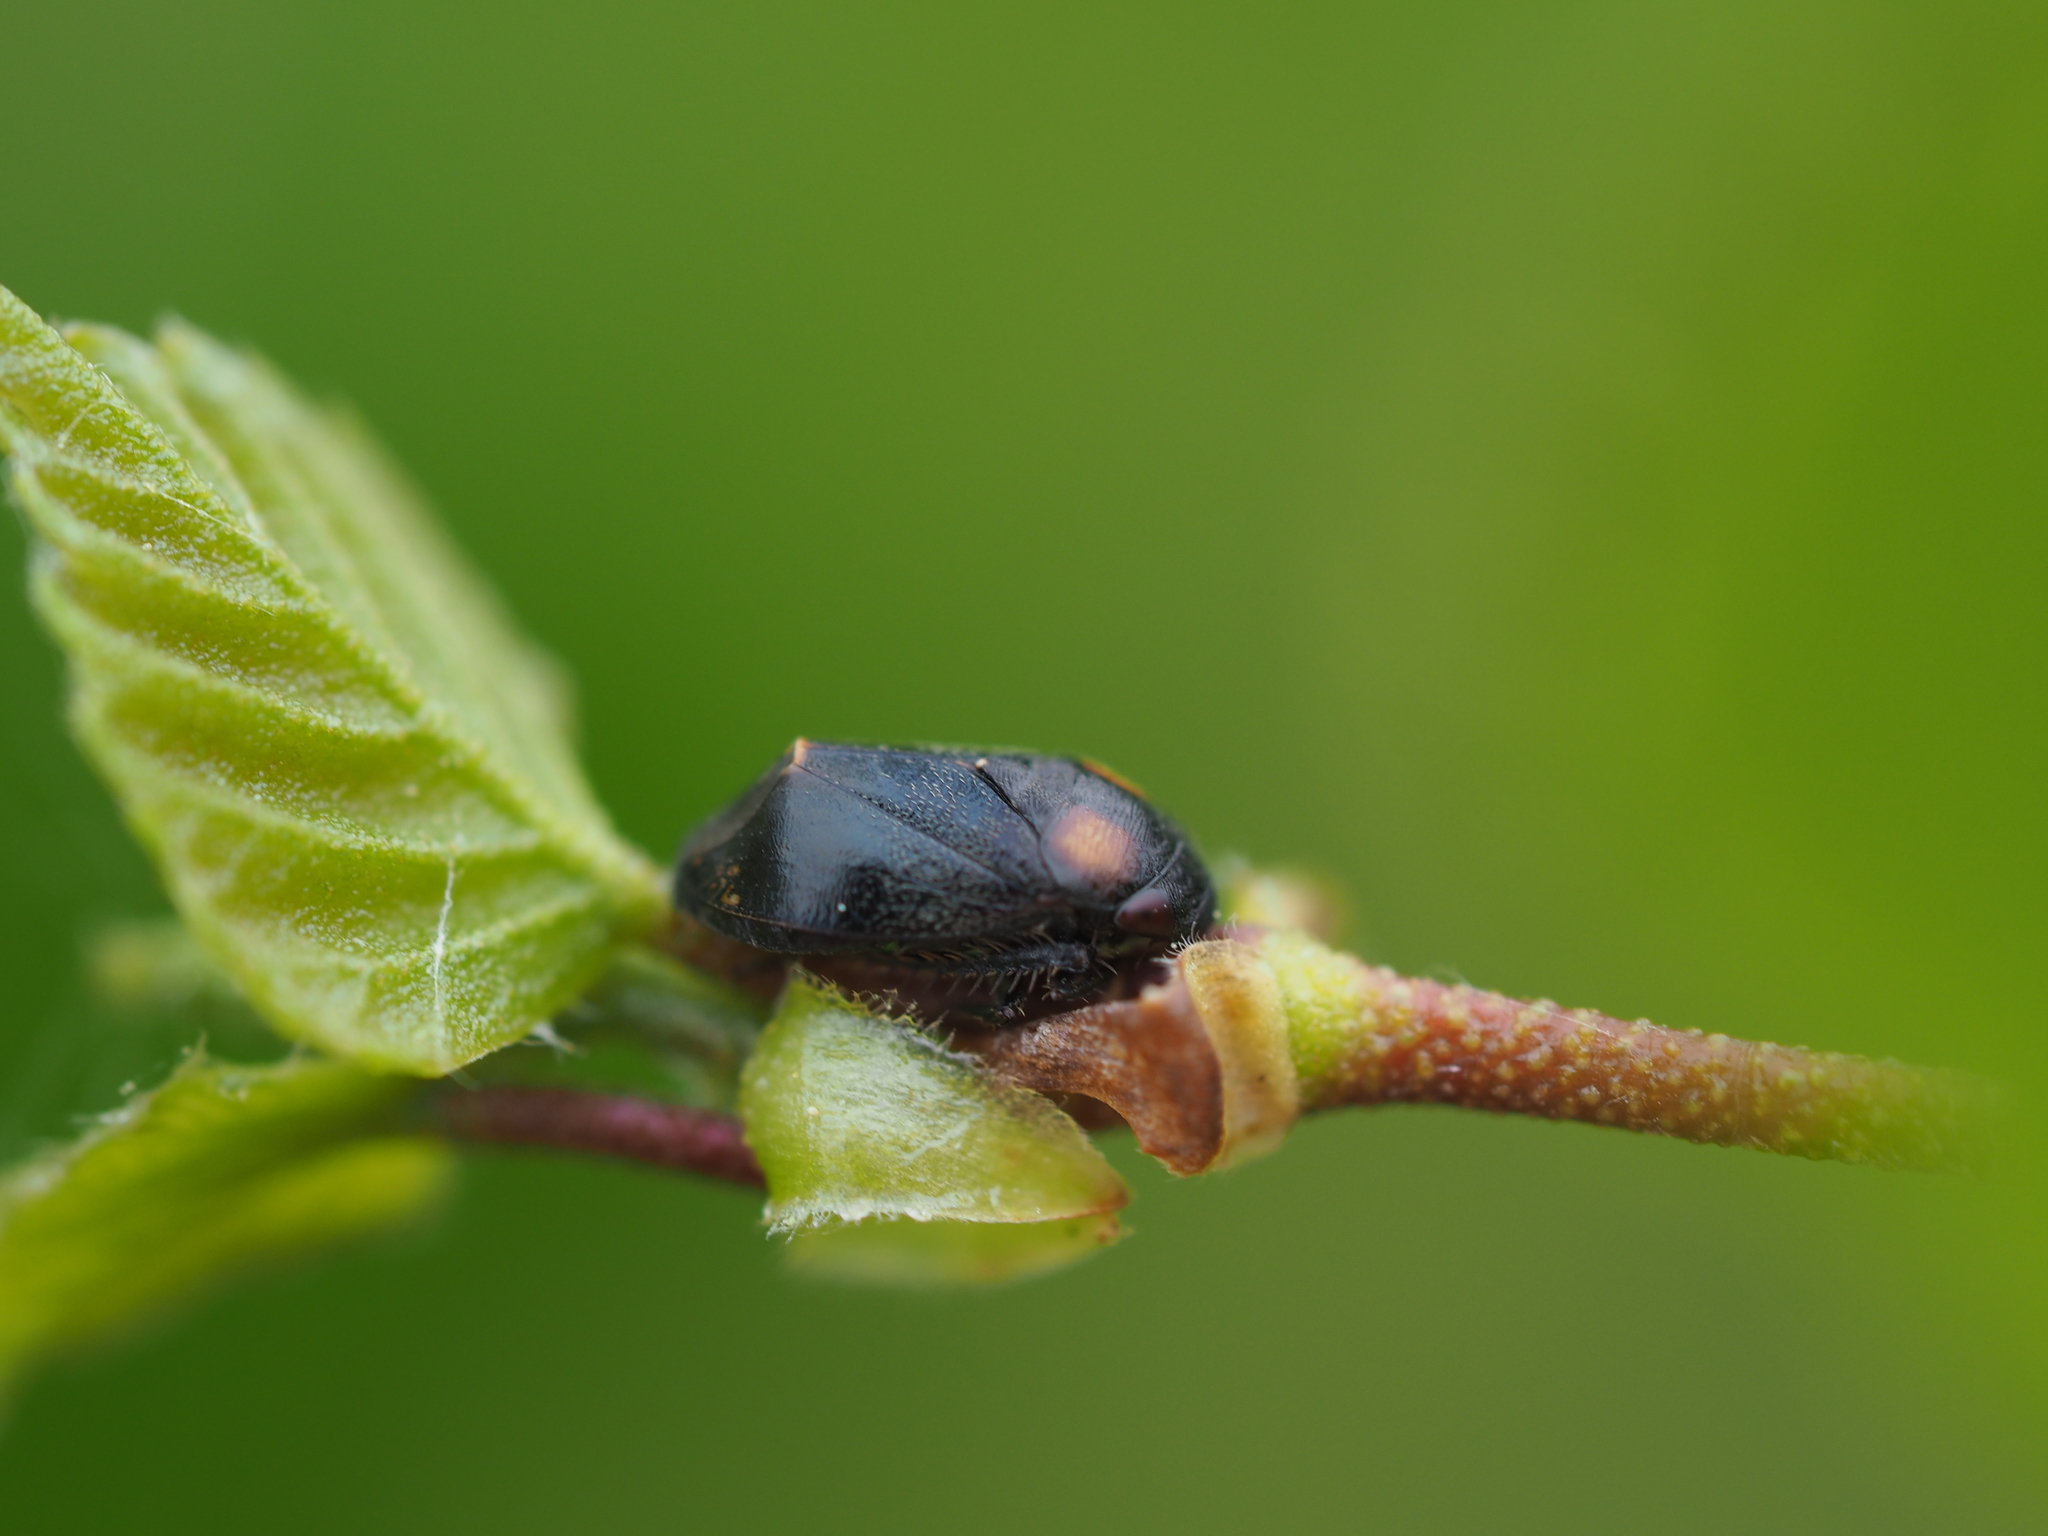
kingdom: Animalia
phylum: Arthropoda
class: Insecta
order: Hemiptera
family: Cicadellidae
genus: Penthimia
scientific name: Penthimia nigra
